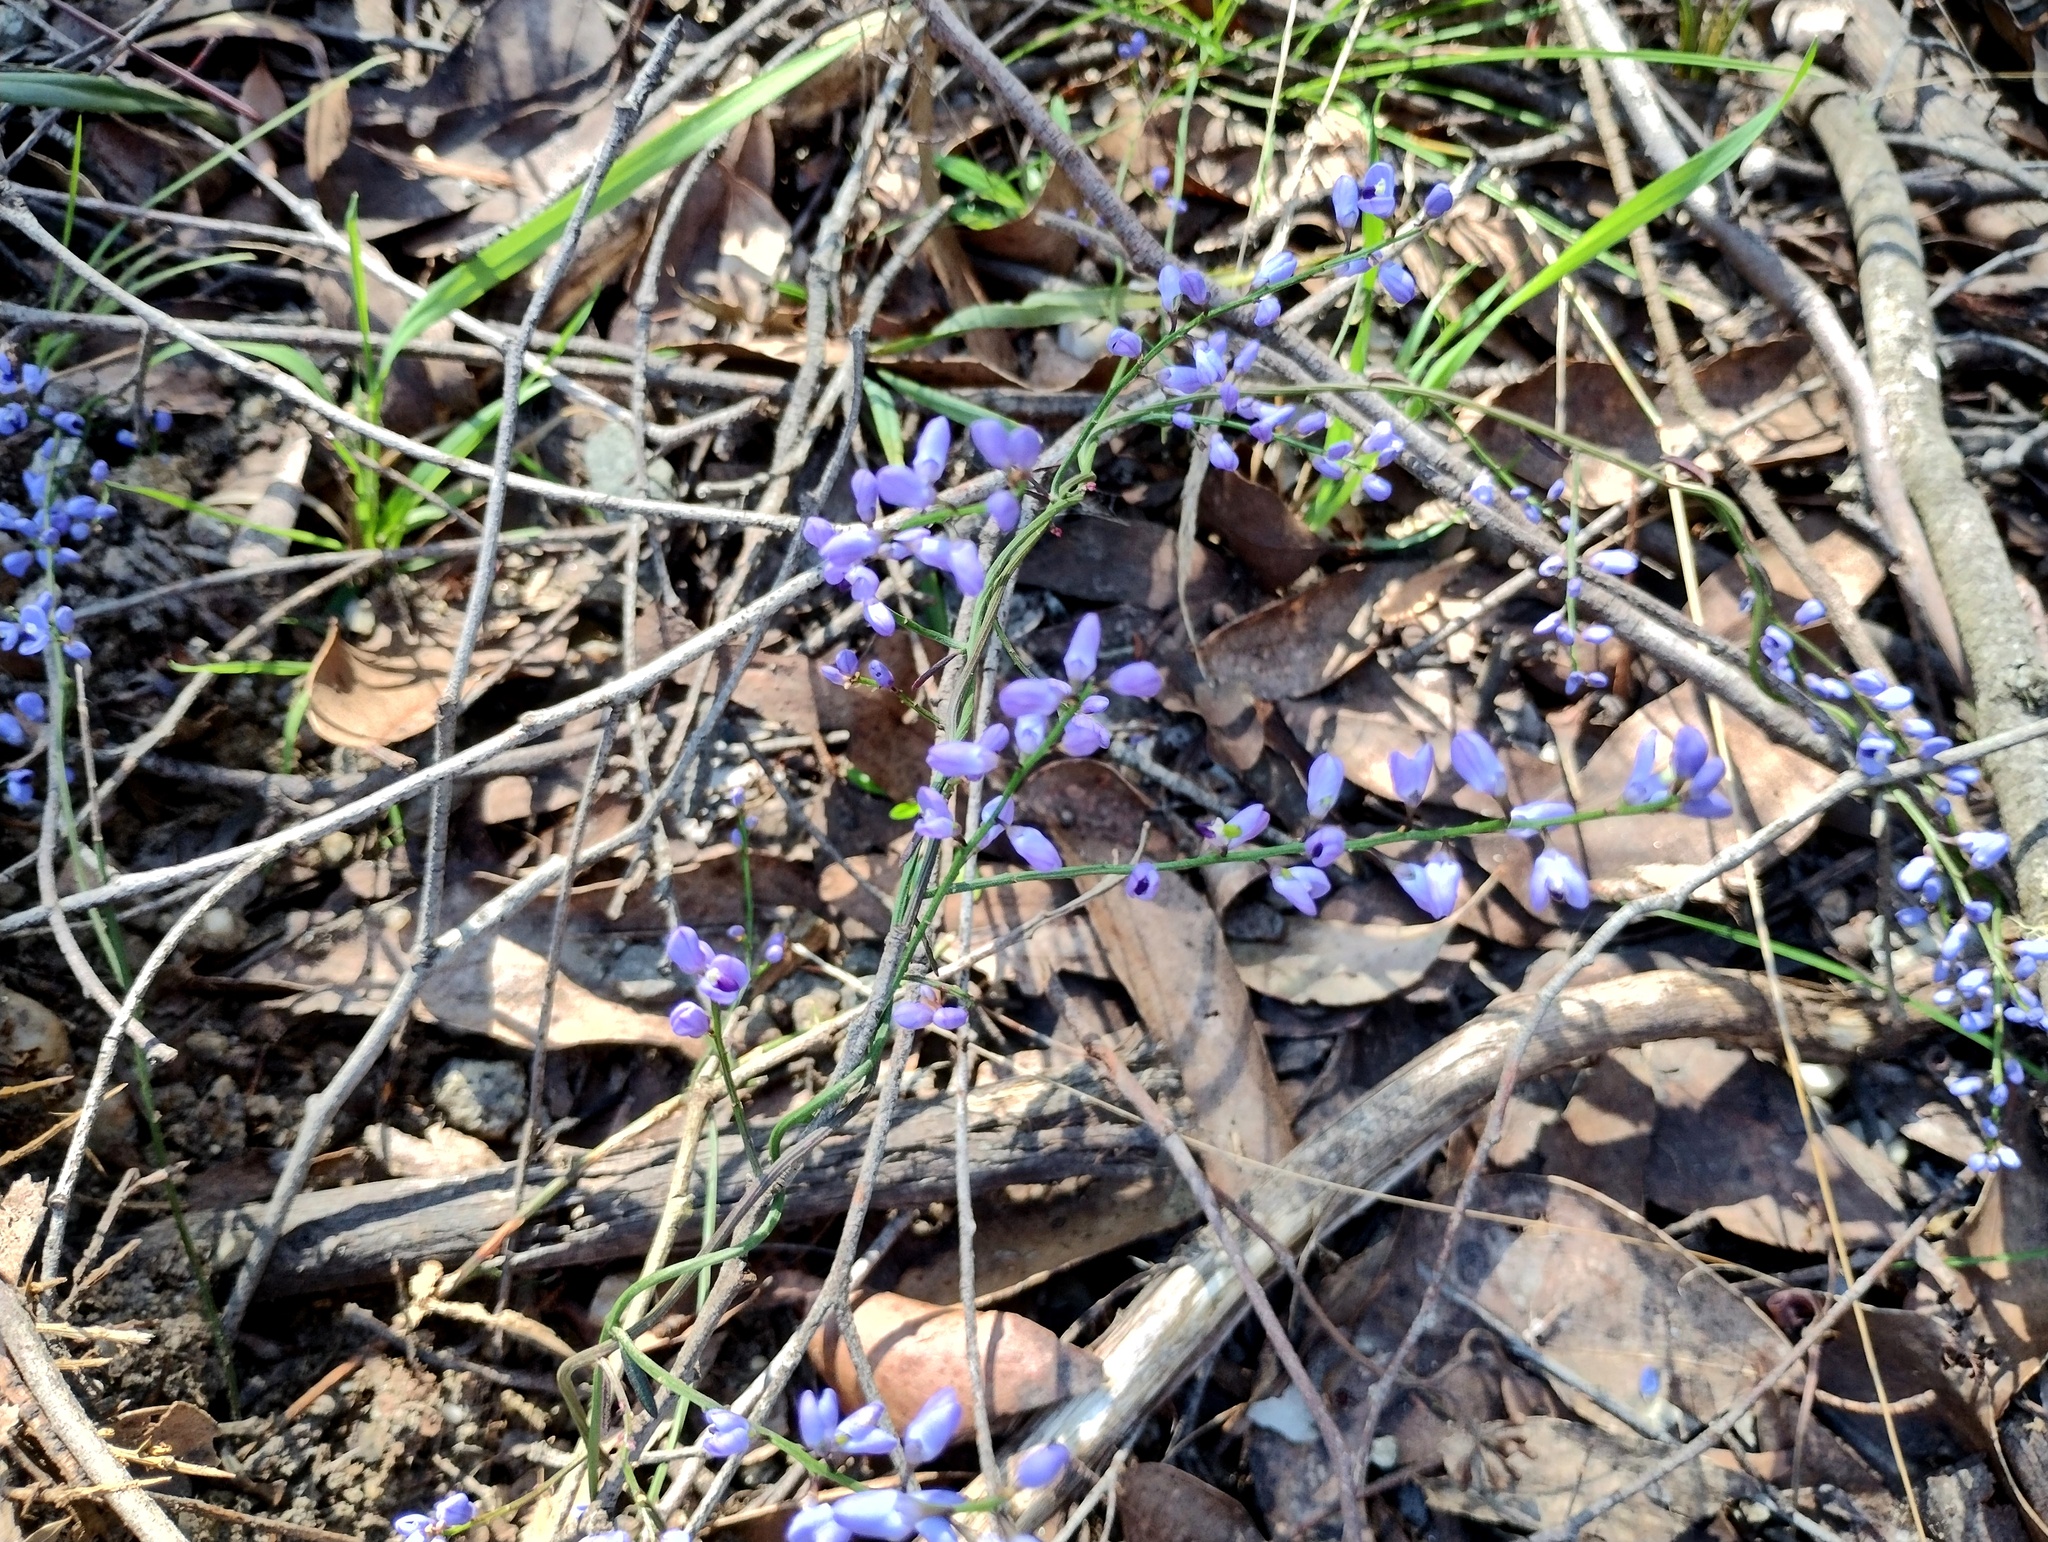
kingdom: Plantae
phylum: Tracheophyta
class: Magnoliopsida
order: Fabales
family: Polygalaceae
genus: Comesperma
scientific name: Comesperma volubile
